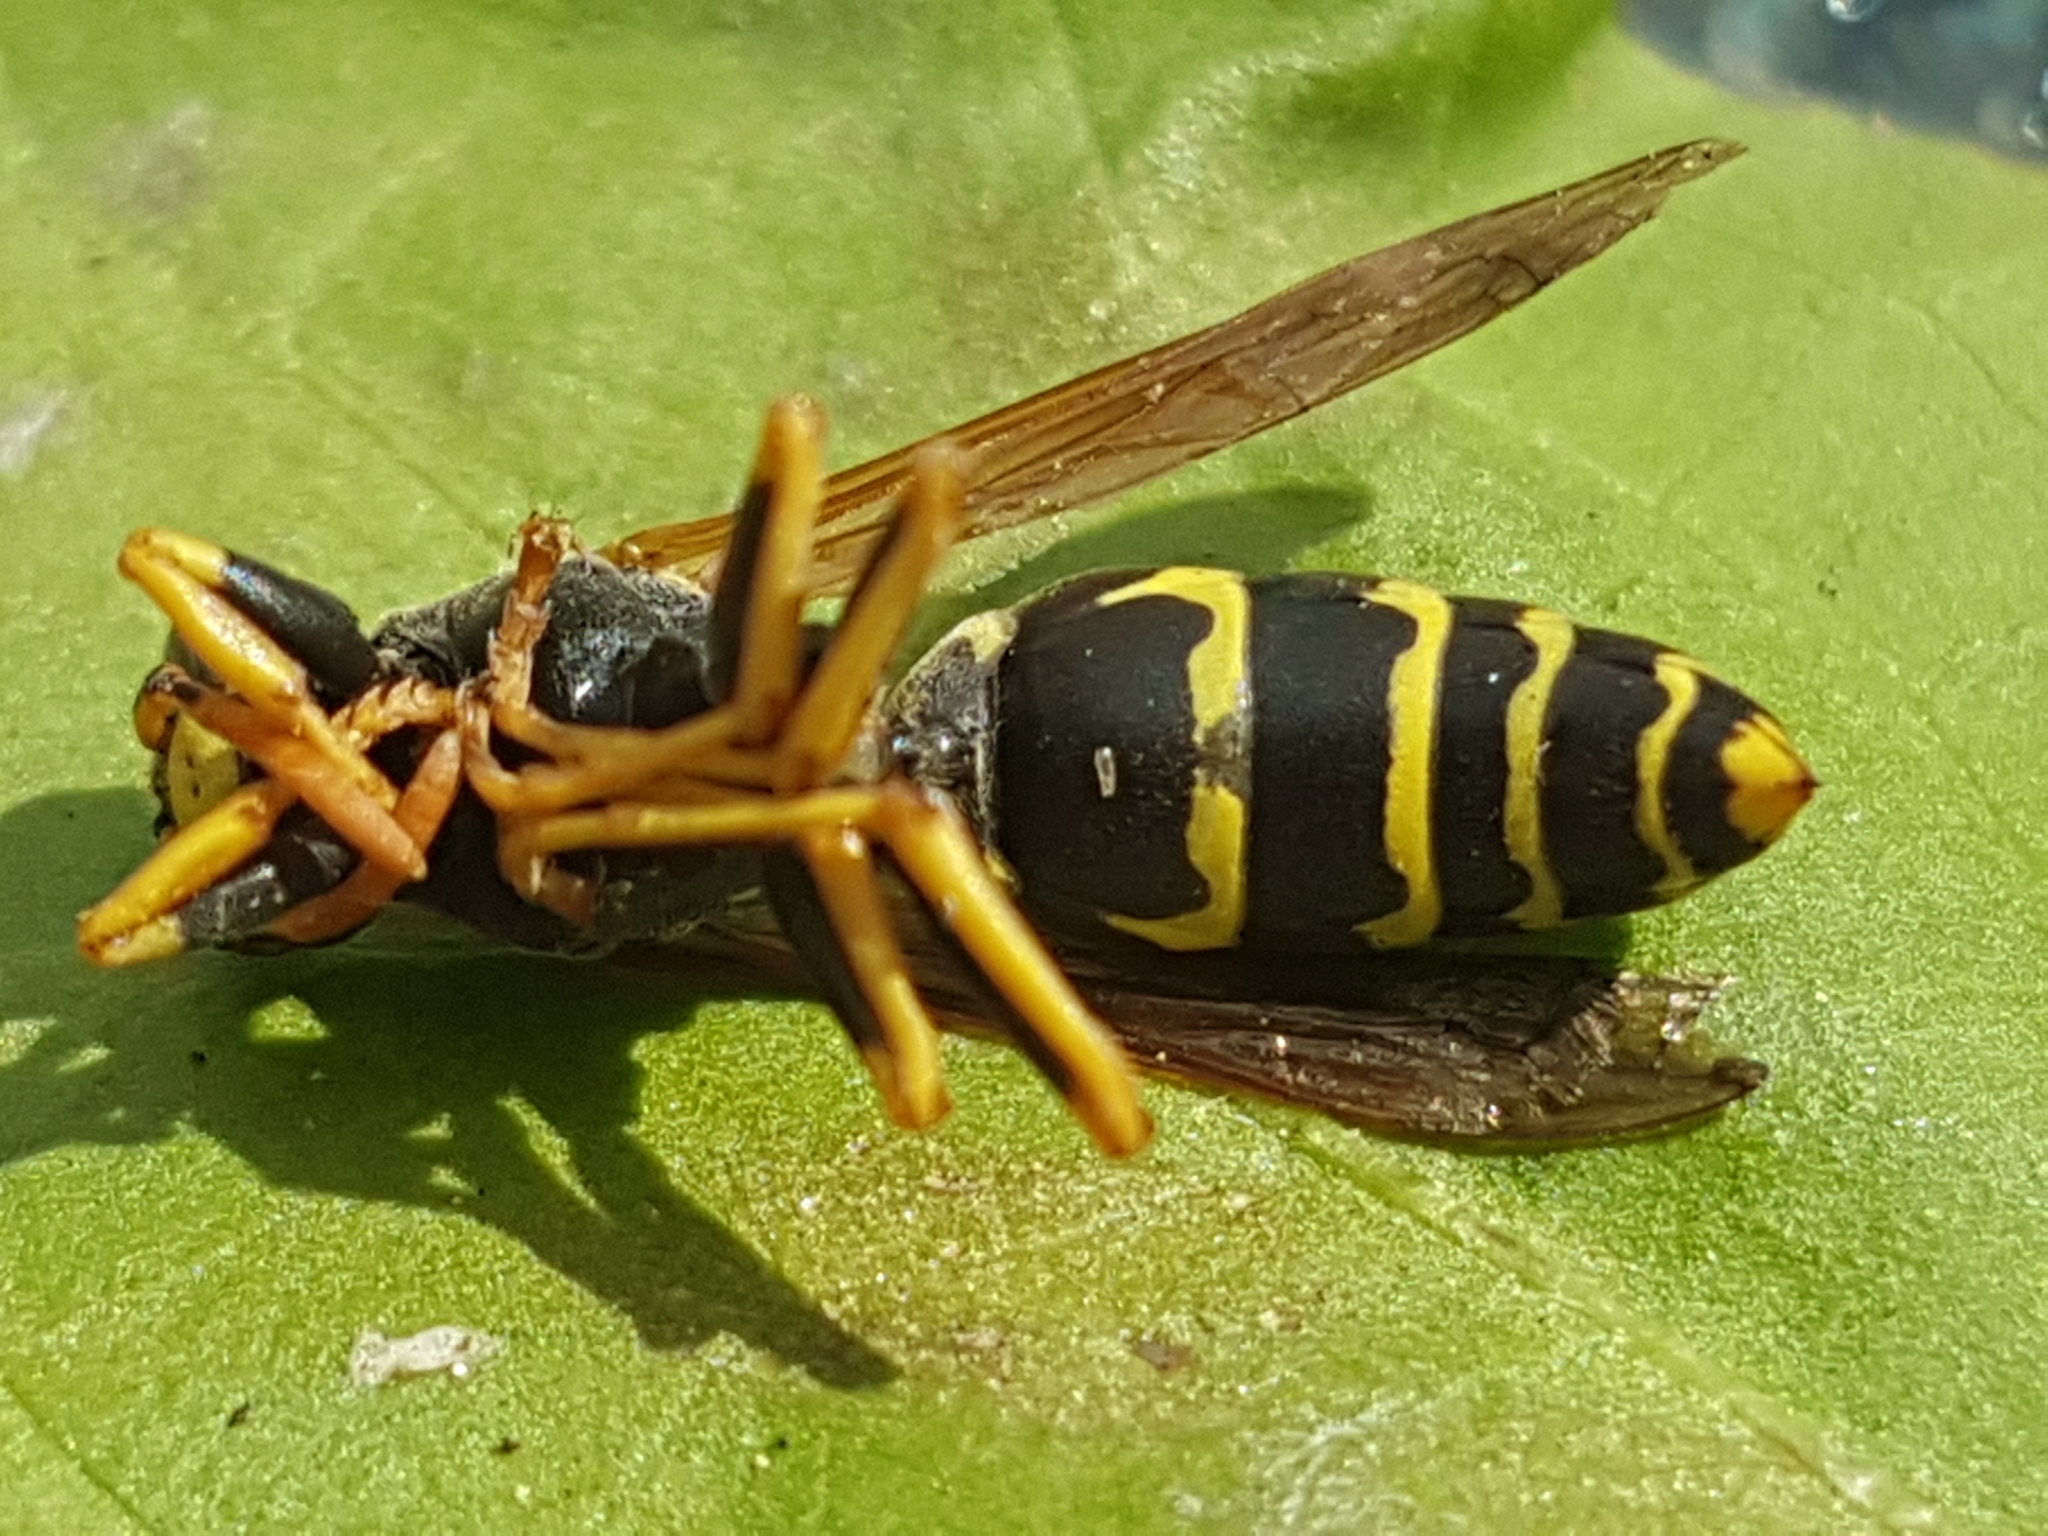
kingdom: Animalia
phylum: Arthropoda
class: Insecta
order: Hymenoptera
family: Eumenidae
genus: Polistes
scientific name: Polistes dominula
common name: Paper wasp
